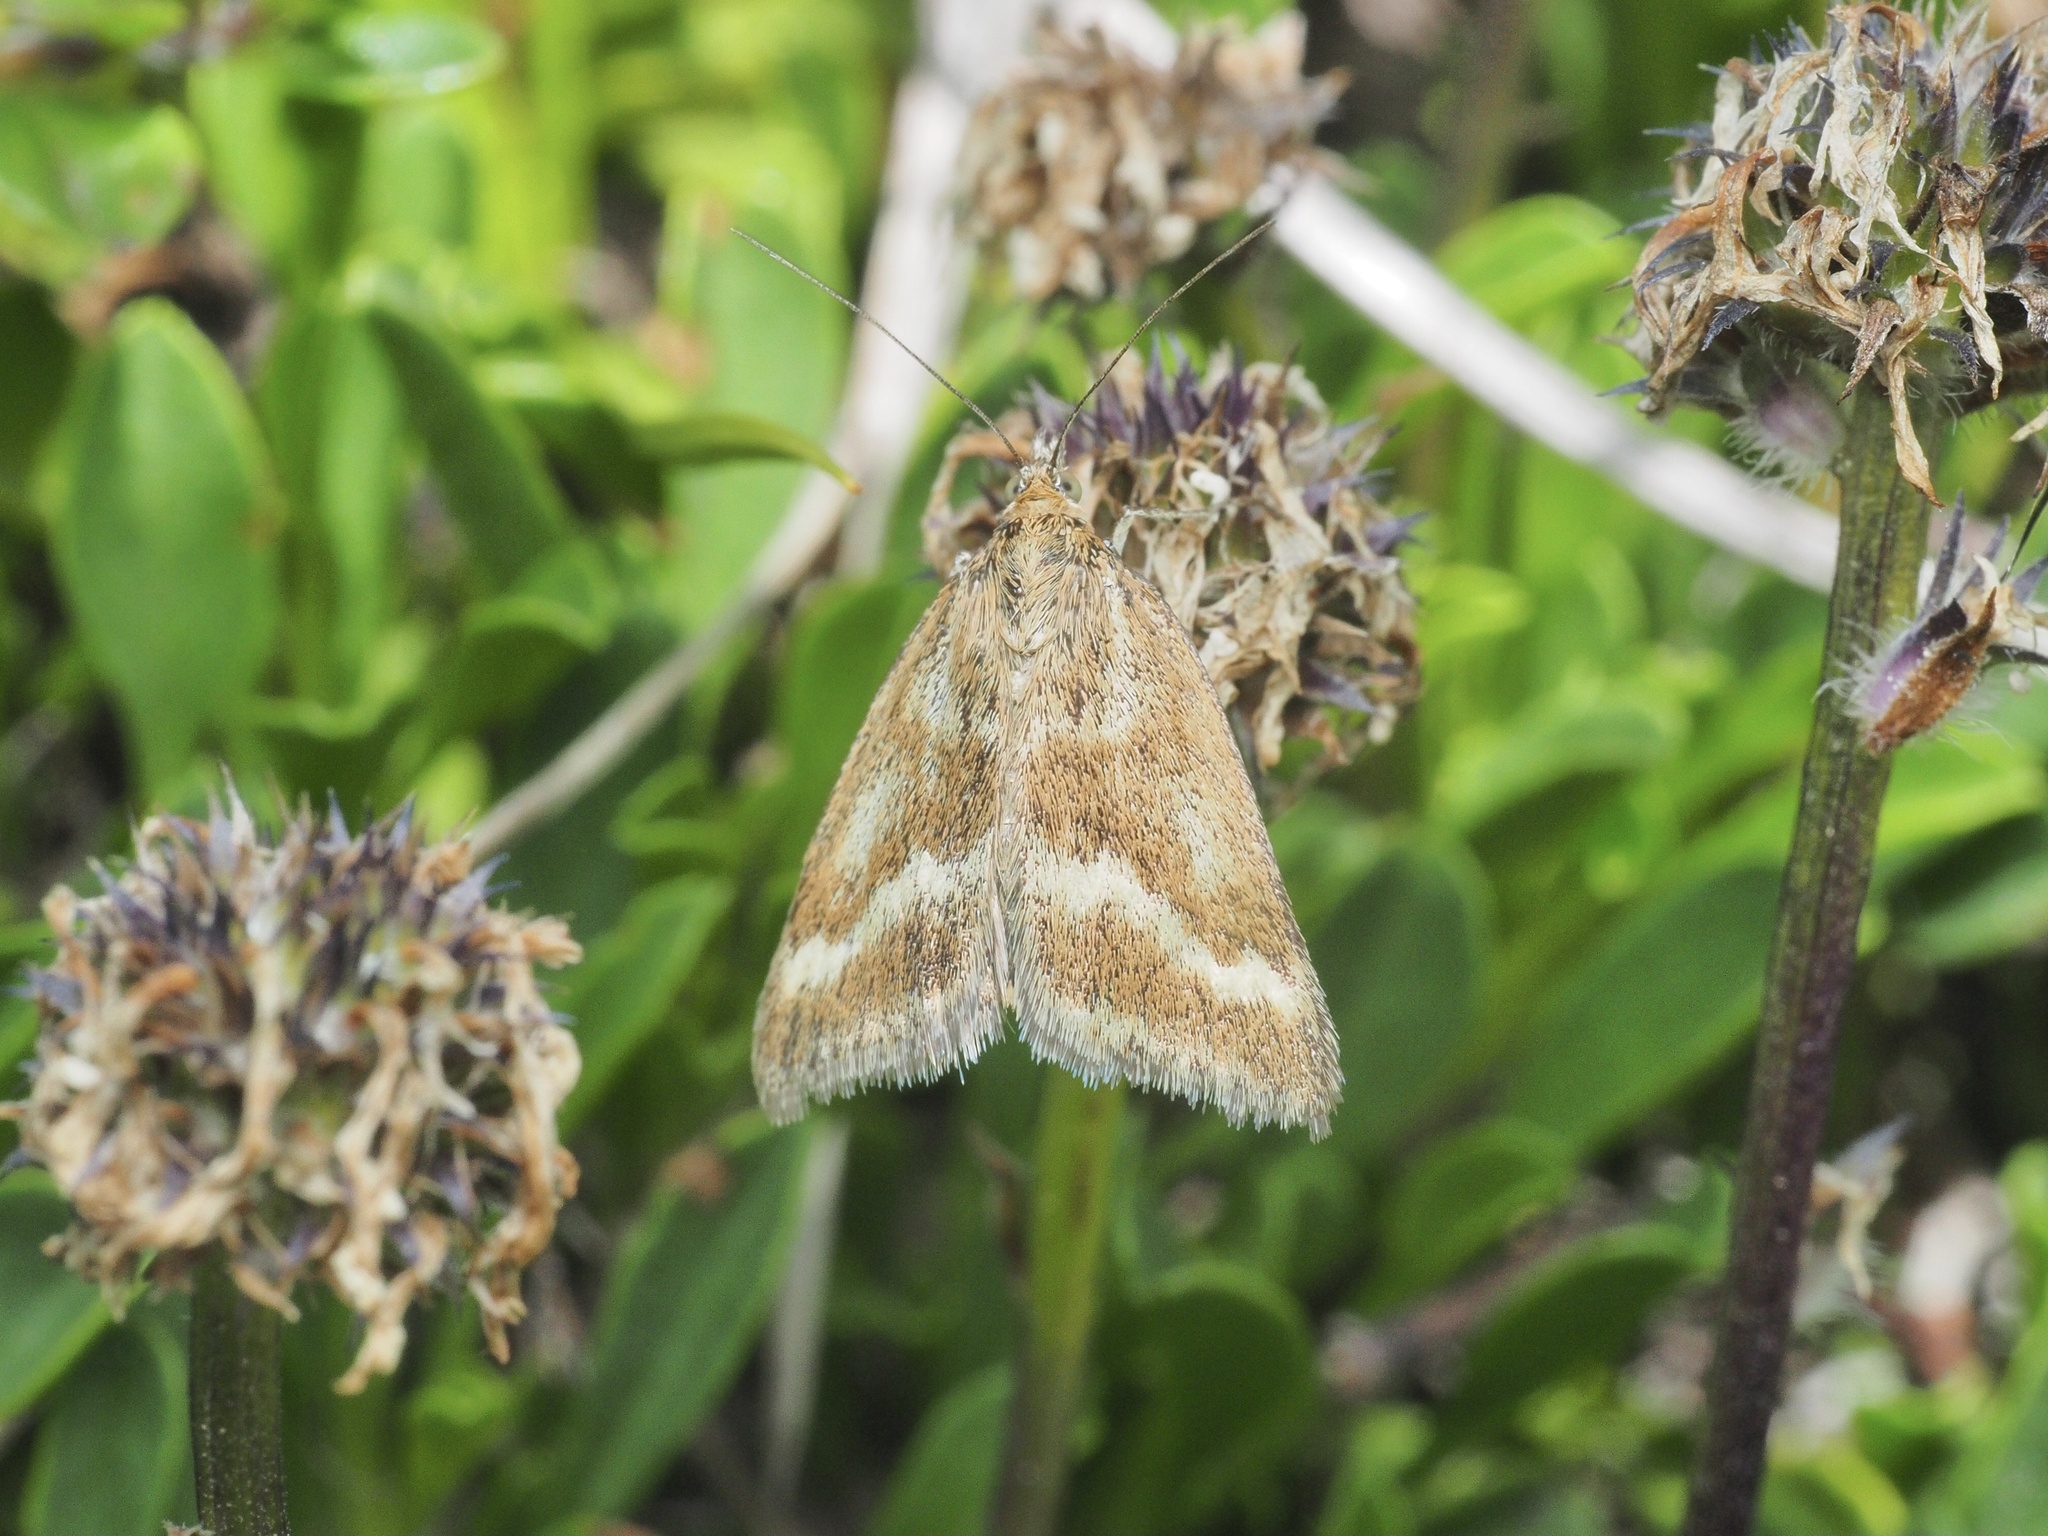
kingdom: Animalia
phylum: Arthropoda
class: Insecta
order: Lepidoptera
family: Crambidae
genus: Pyrausta
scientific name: Pyrausta aerealis
